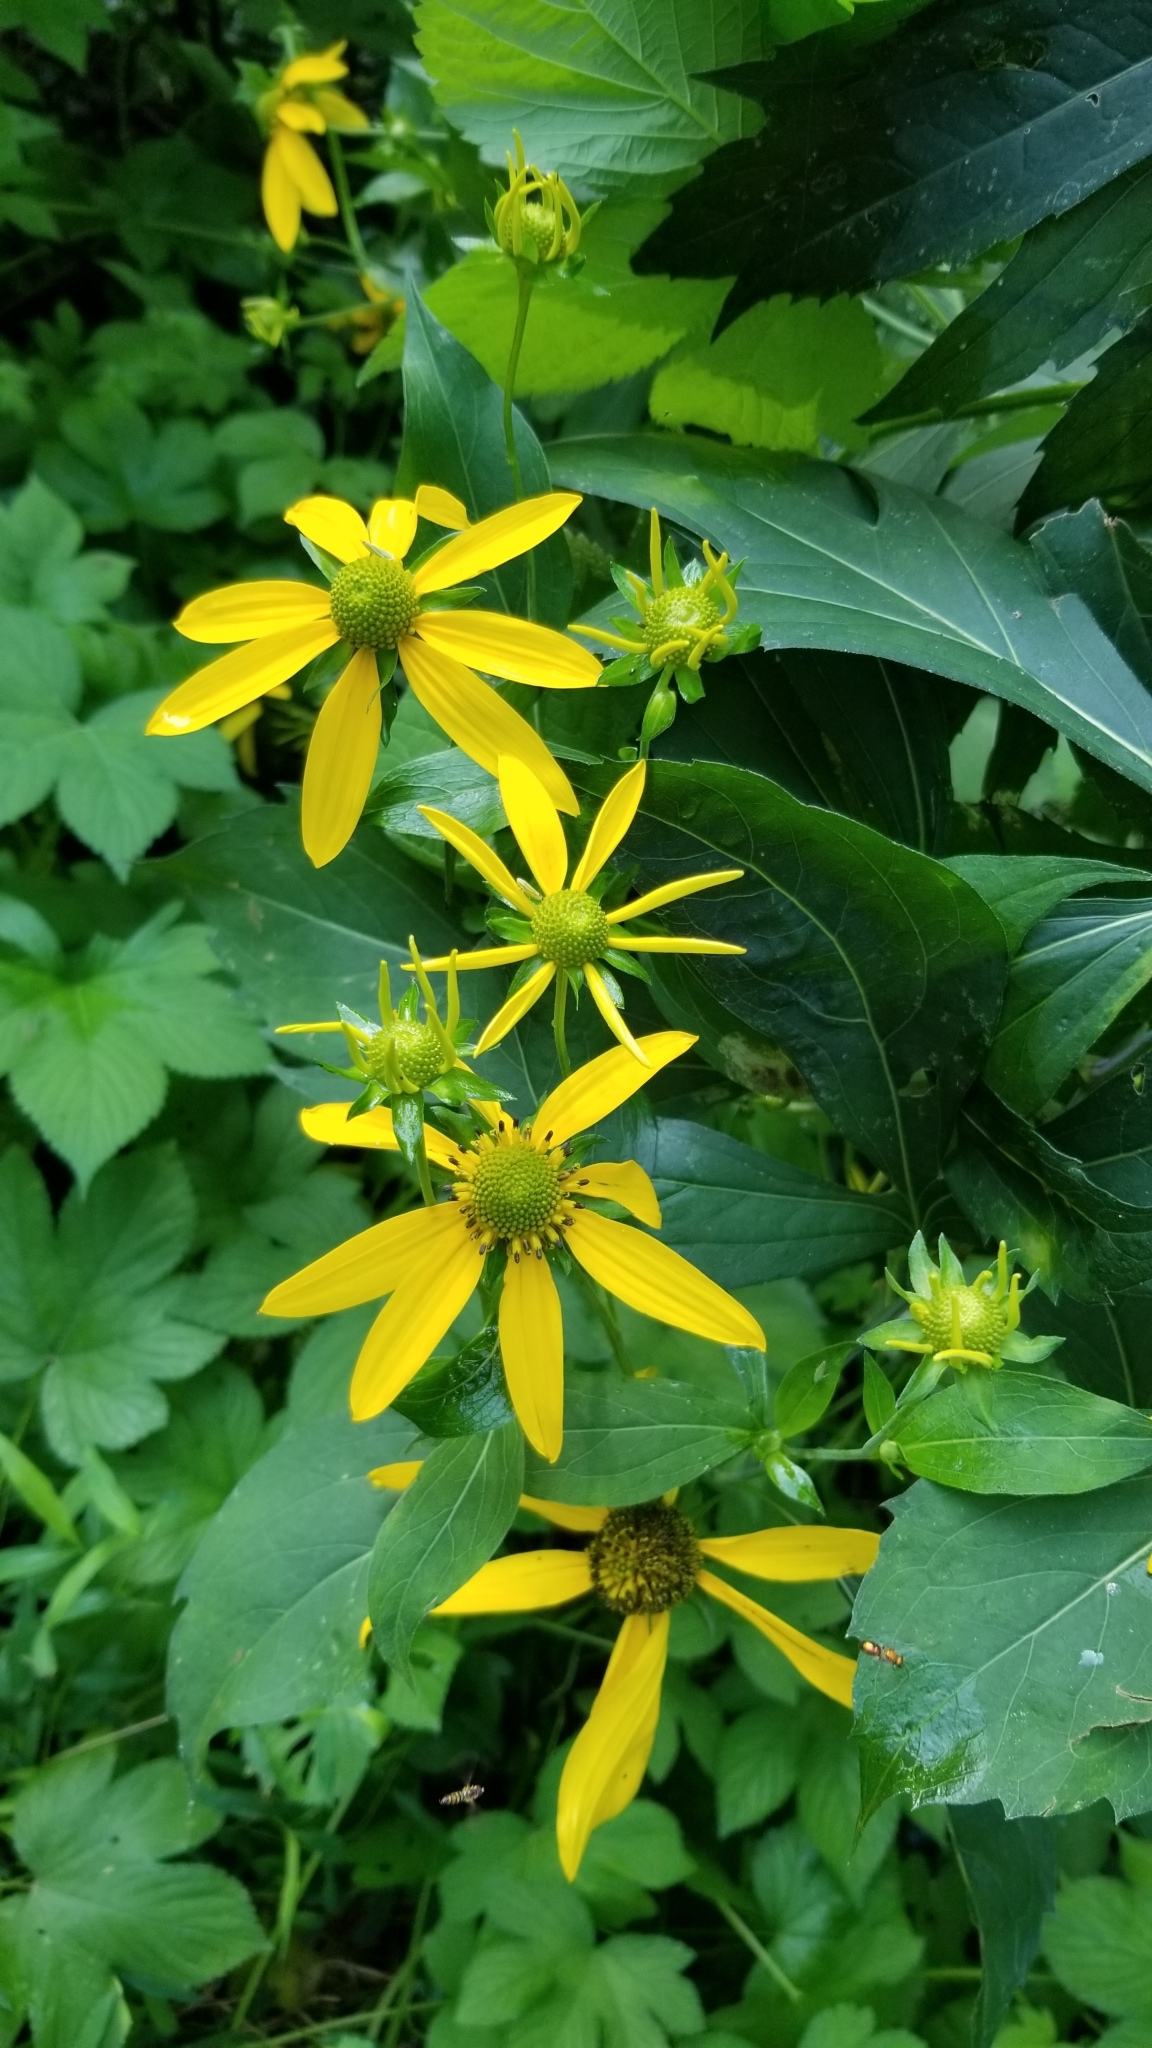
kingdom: Plantae
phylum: Tracheophyta
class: Magnoliopsida
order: Asterales
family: Asteraceae
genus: Rudbeckia
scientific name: Rudbeckia laciniata
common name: Coneflower
